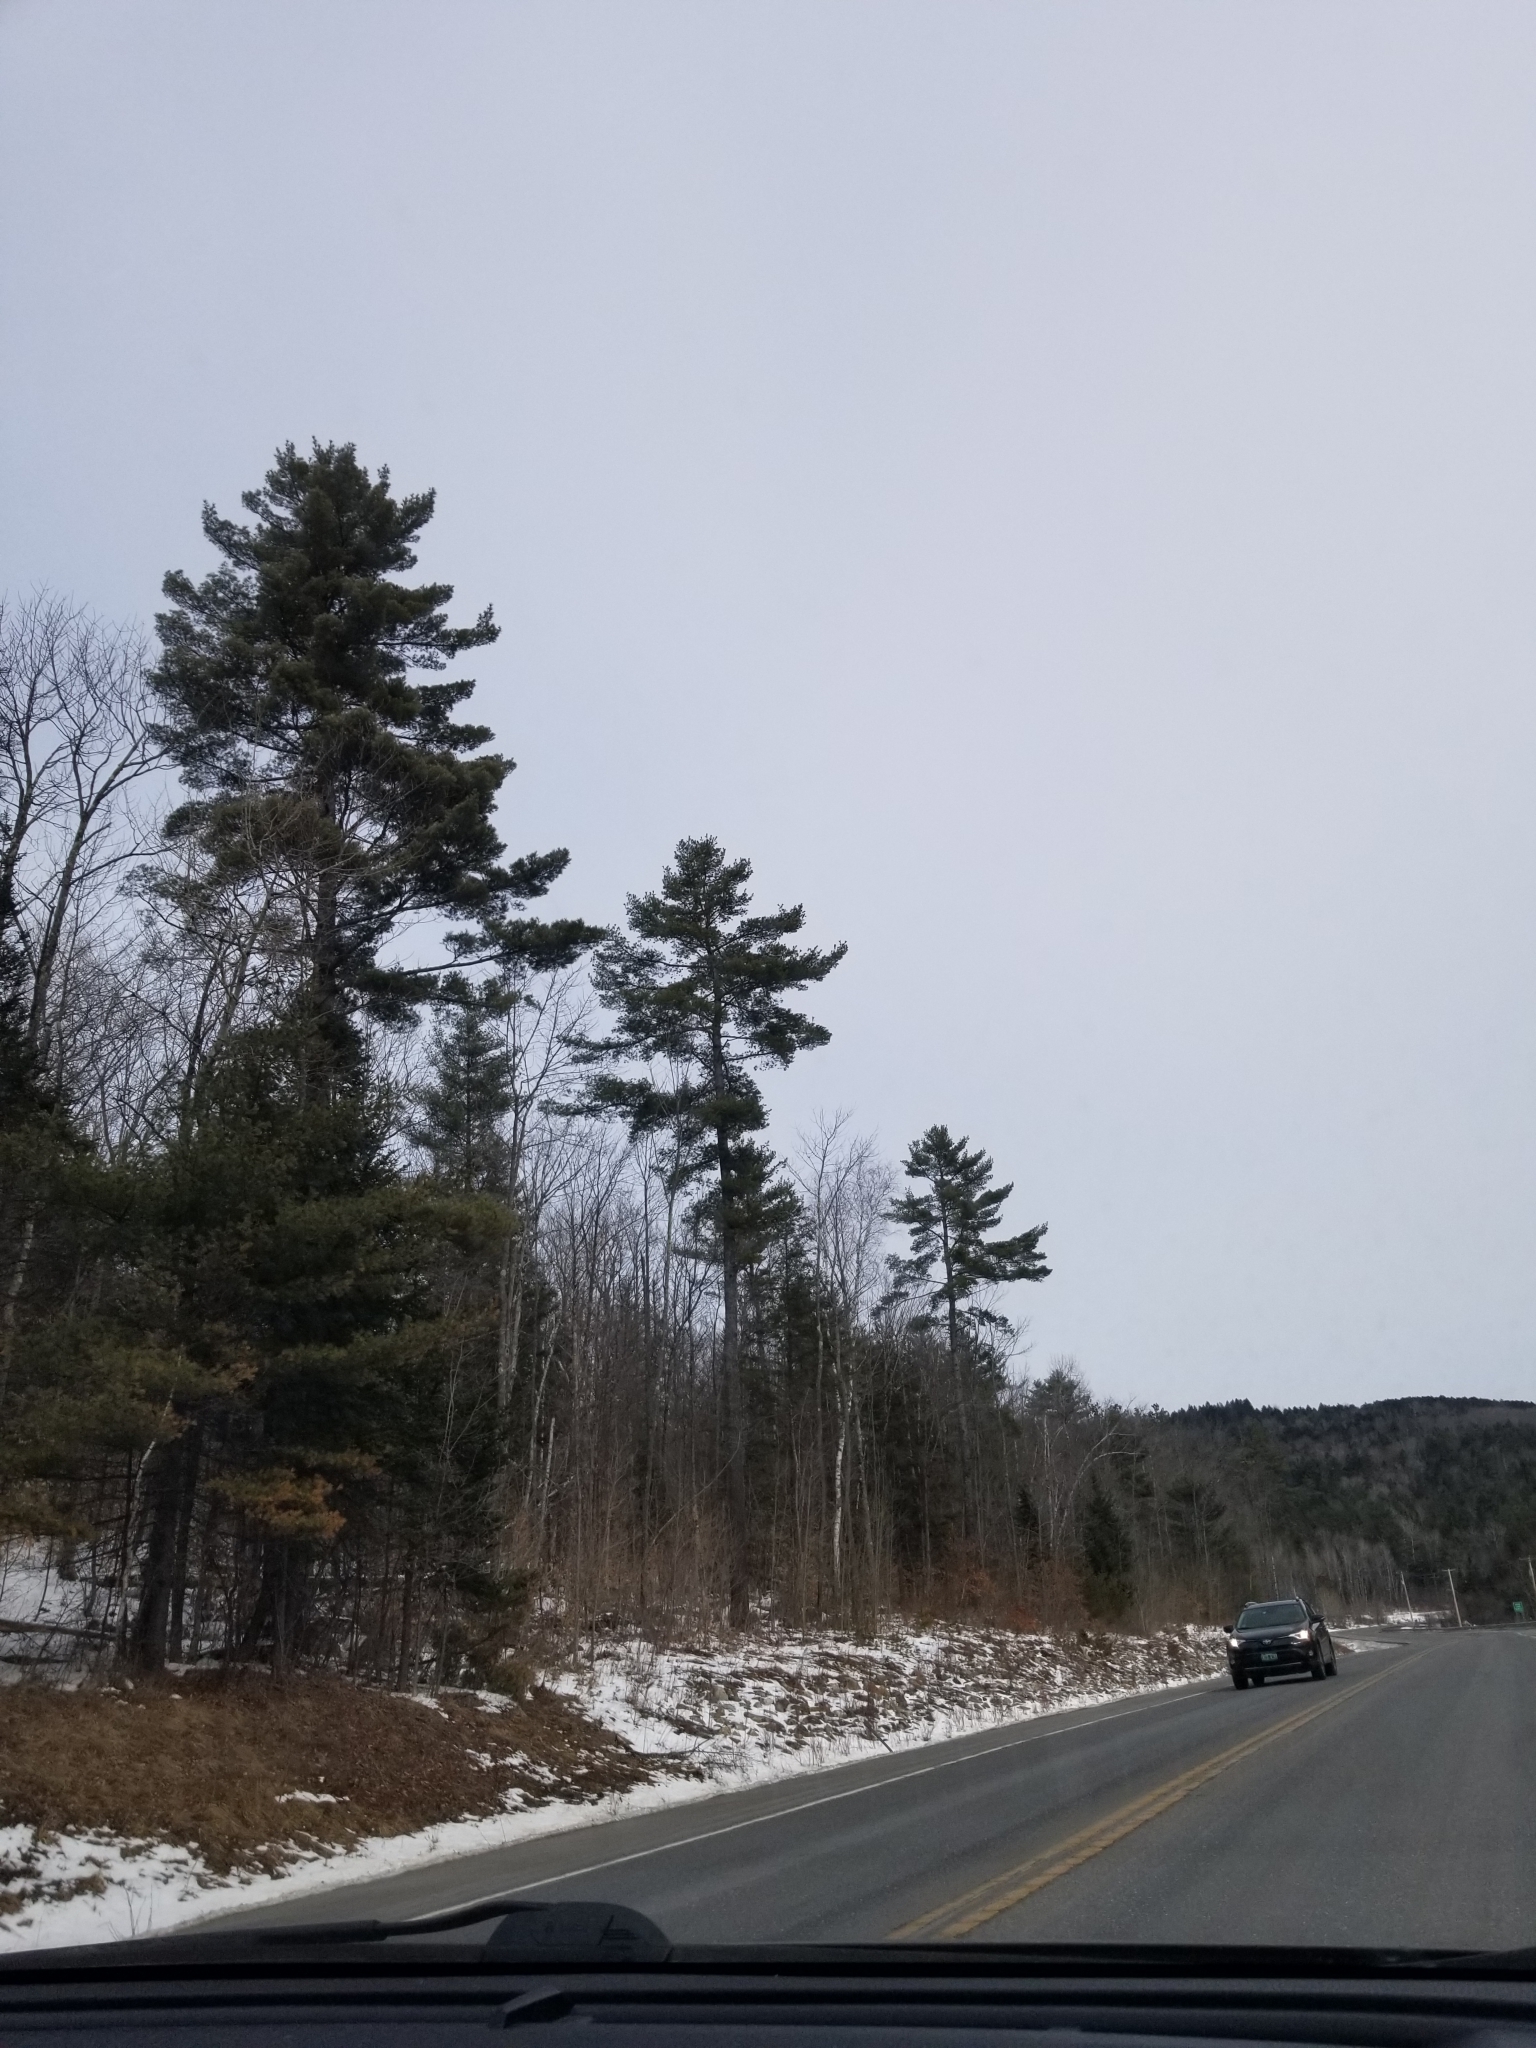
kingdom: Plantae
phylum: Tracheophyta
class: Pinopsida
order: Pinales
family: Pinaceae
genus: Pinus
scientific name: Pinus strobus
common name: Weymouth pine
